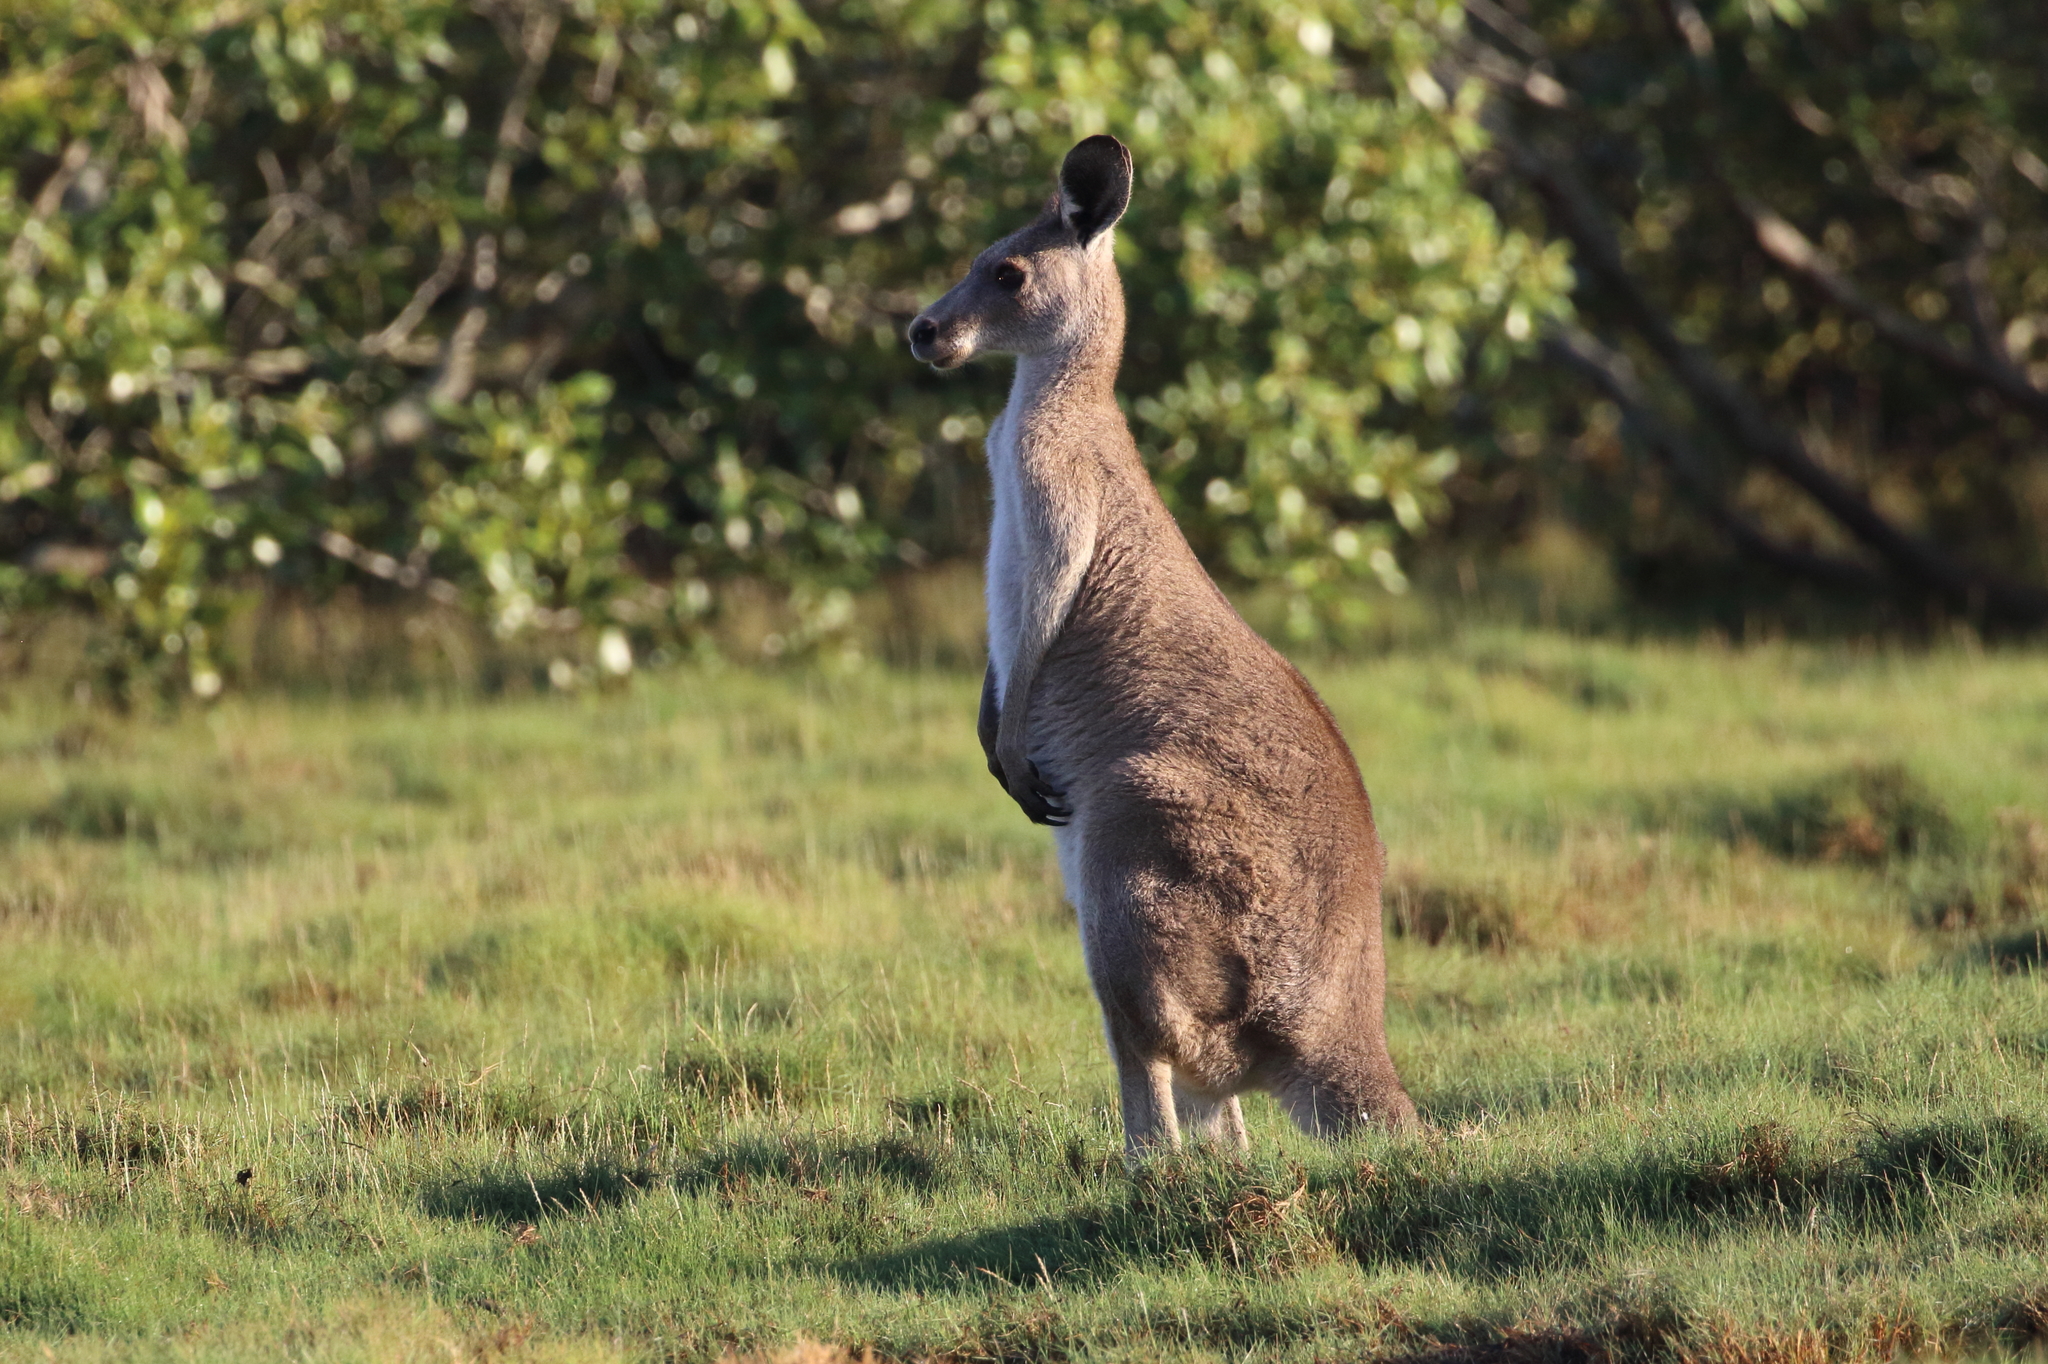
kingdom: Animalia
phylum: Chordata
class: Mammalia
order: Diprotodontia
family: Macropodidae
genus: Macropus
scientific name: Macropus giganteus
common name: Eastern grey kangaroo
